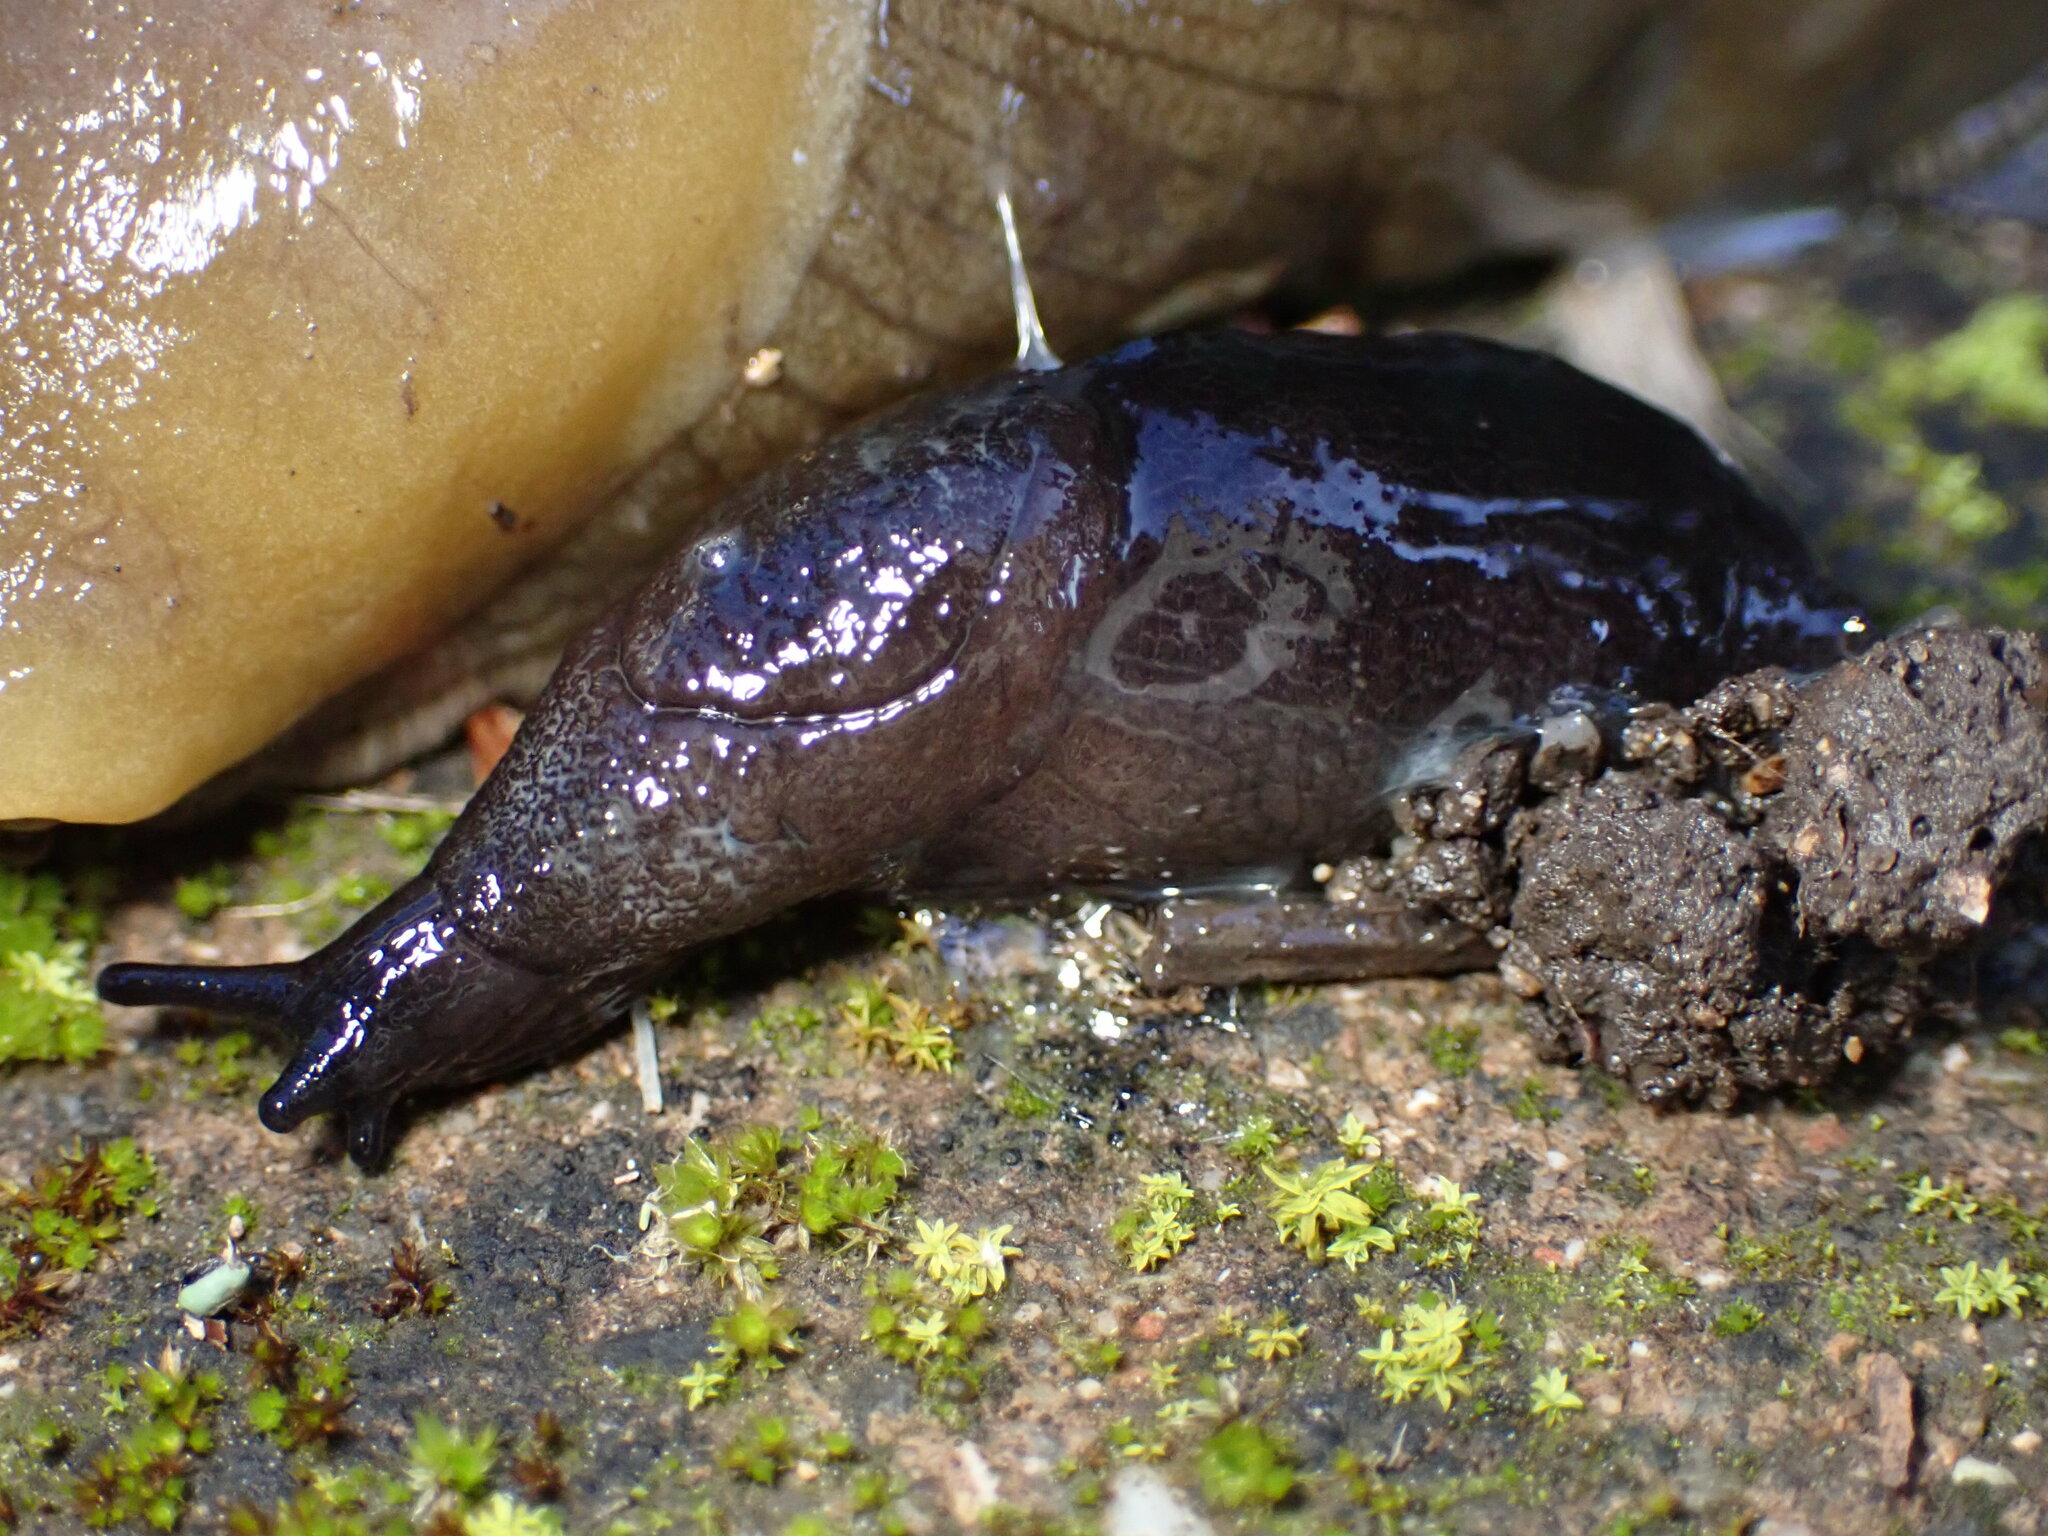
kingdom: Animalia
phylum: Mollusca
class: Gastropoda
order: Stylommatophora
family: Milacidae
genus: Milax
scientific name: Milax gagates
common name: Greenhouse slug
